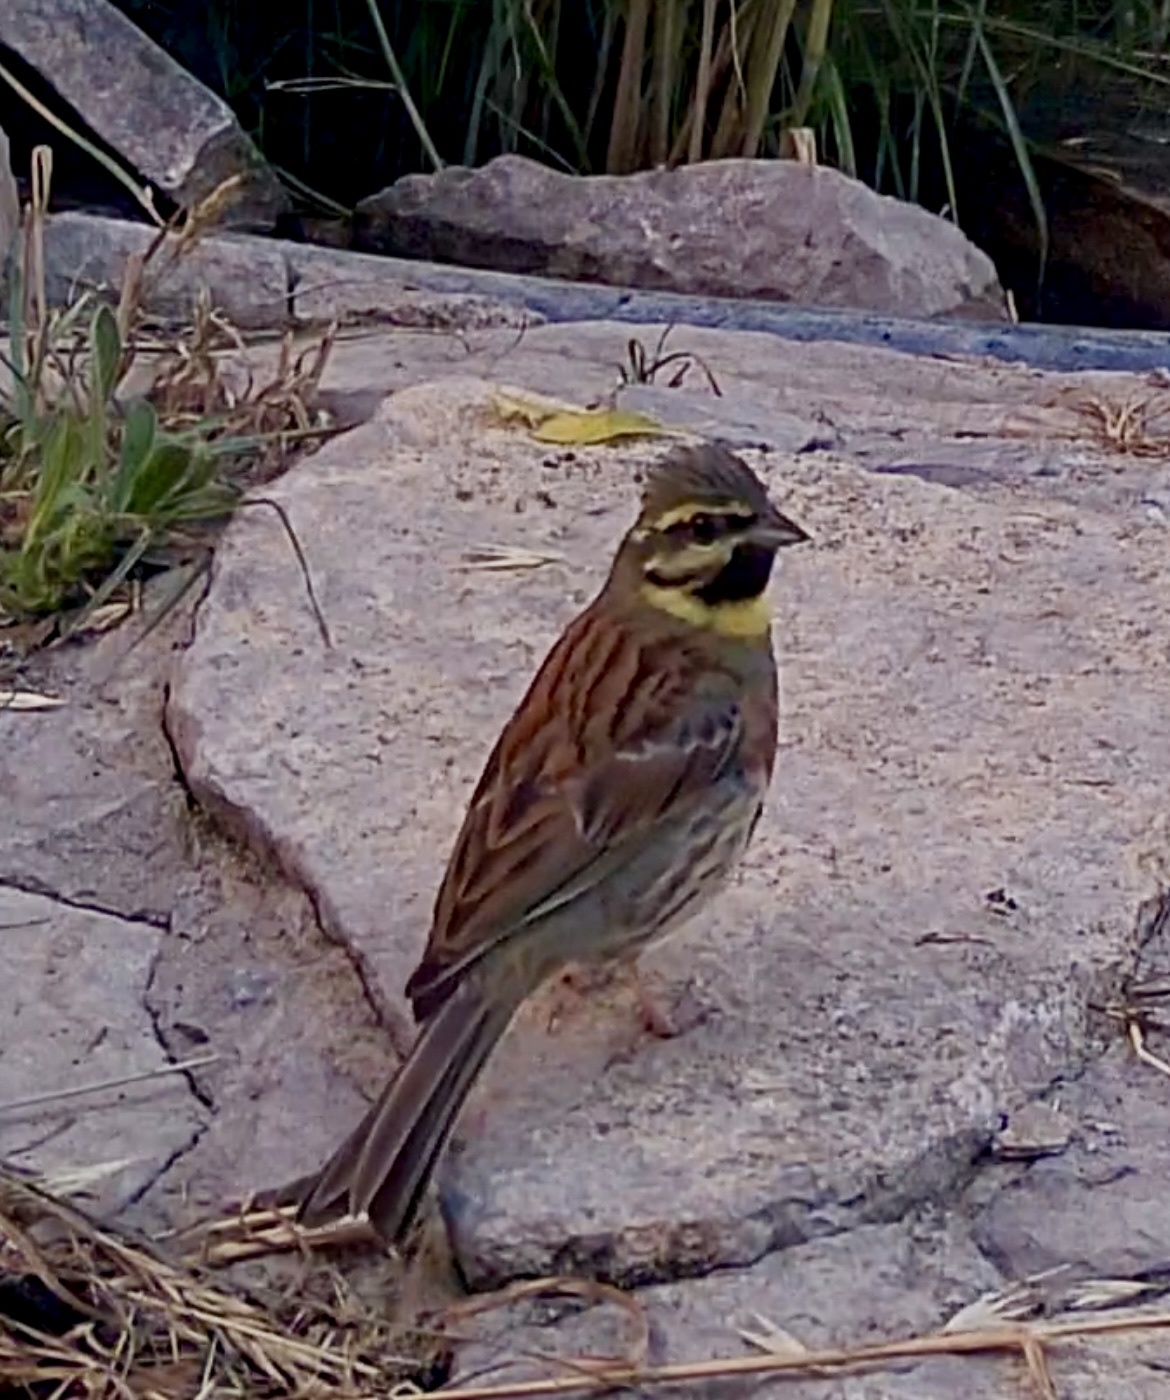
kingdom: Animalia
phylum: Chordata
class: Aves
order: Passeriformes
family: Emberizidae
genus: Emberiza
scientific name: Emberiza cirlus
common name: Cirl bunting
